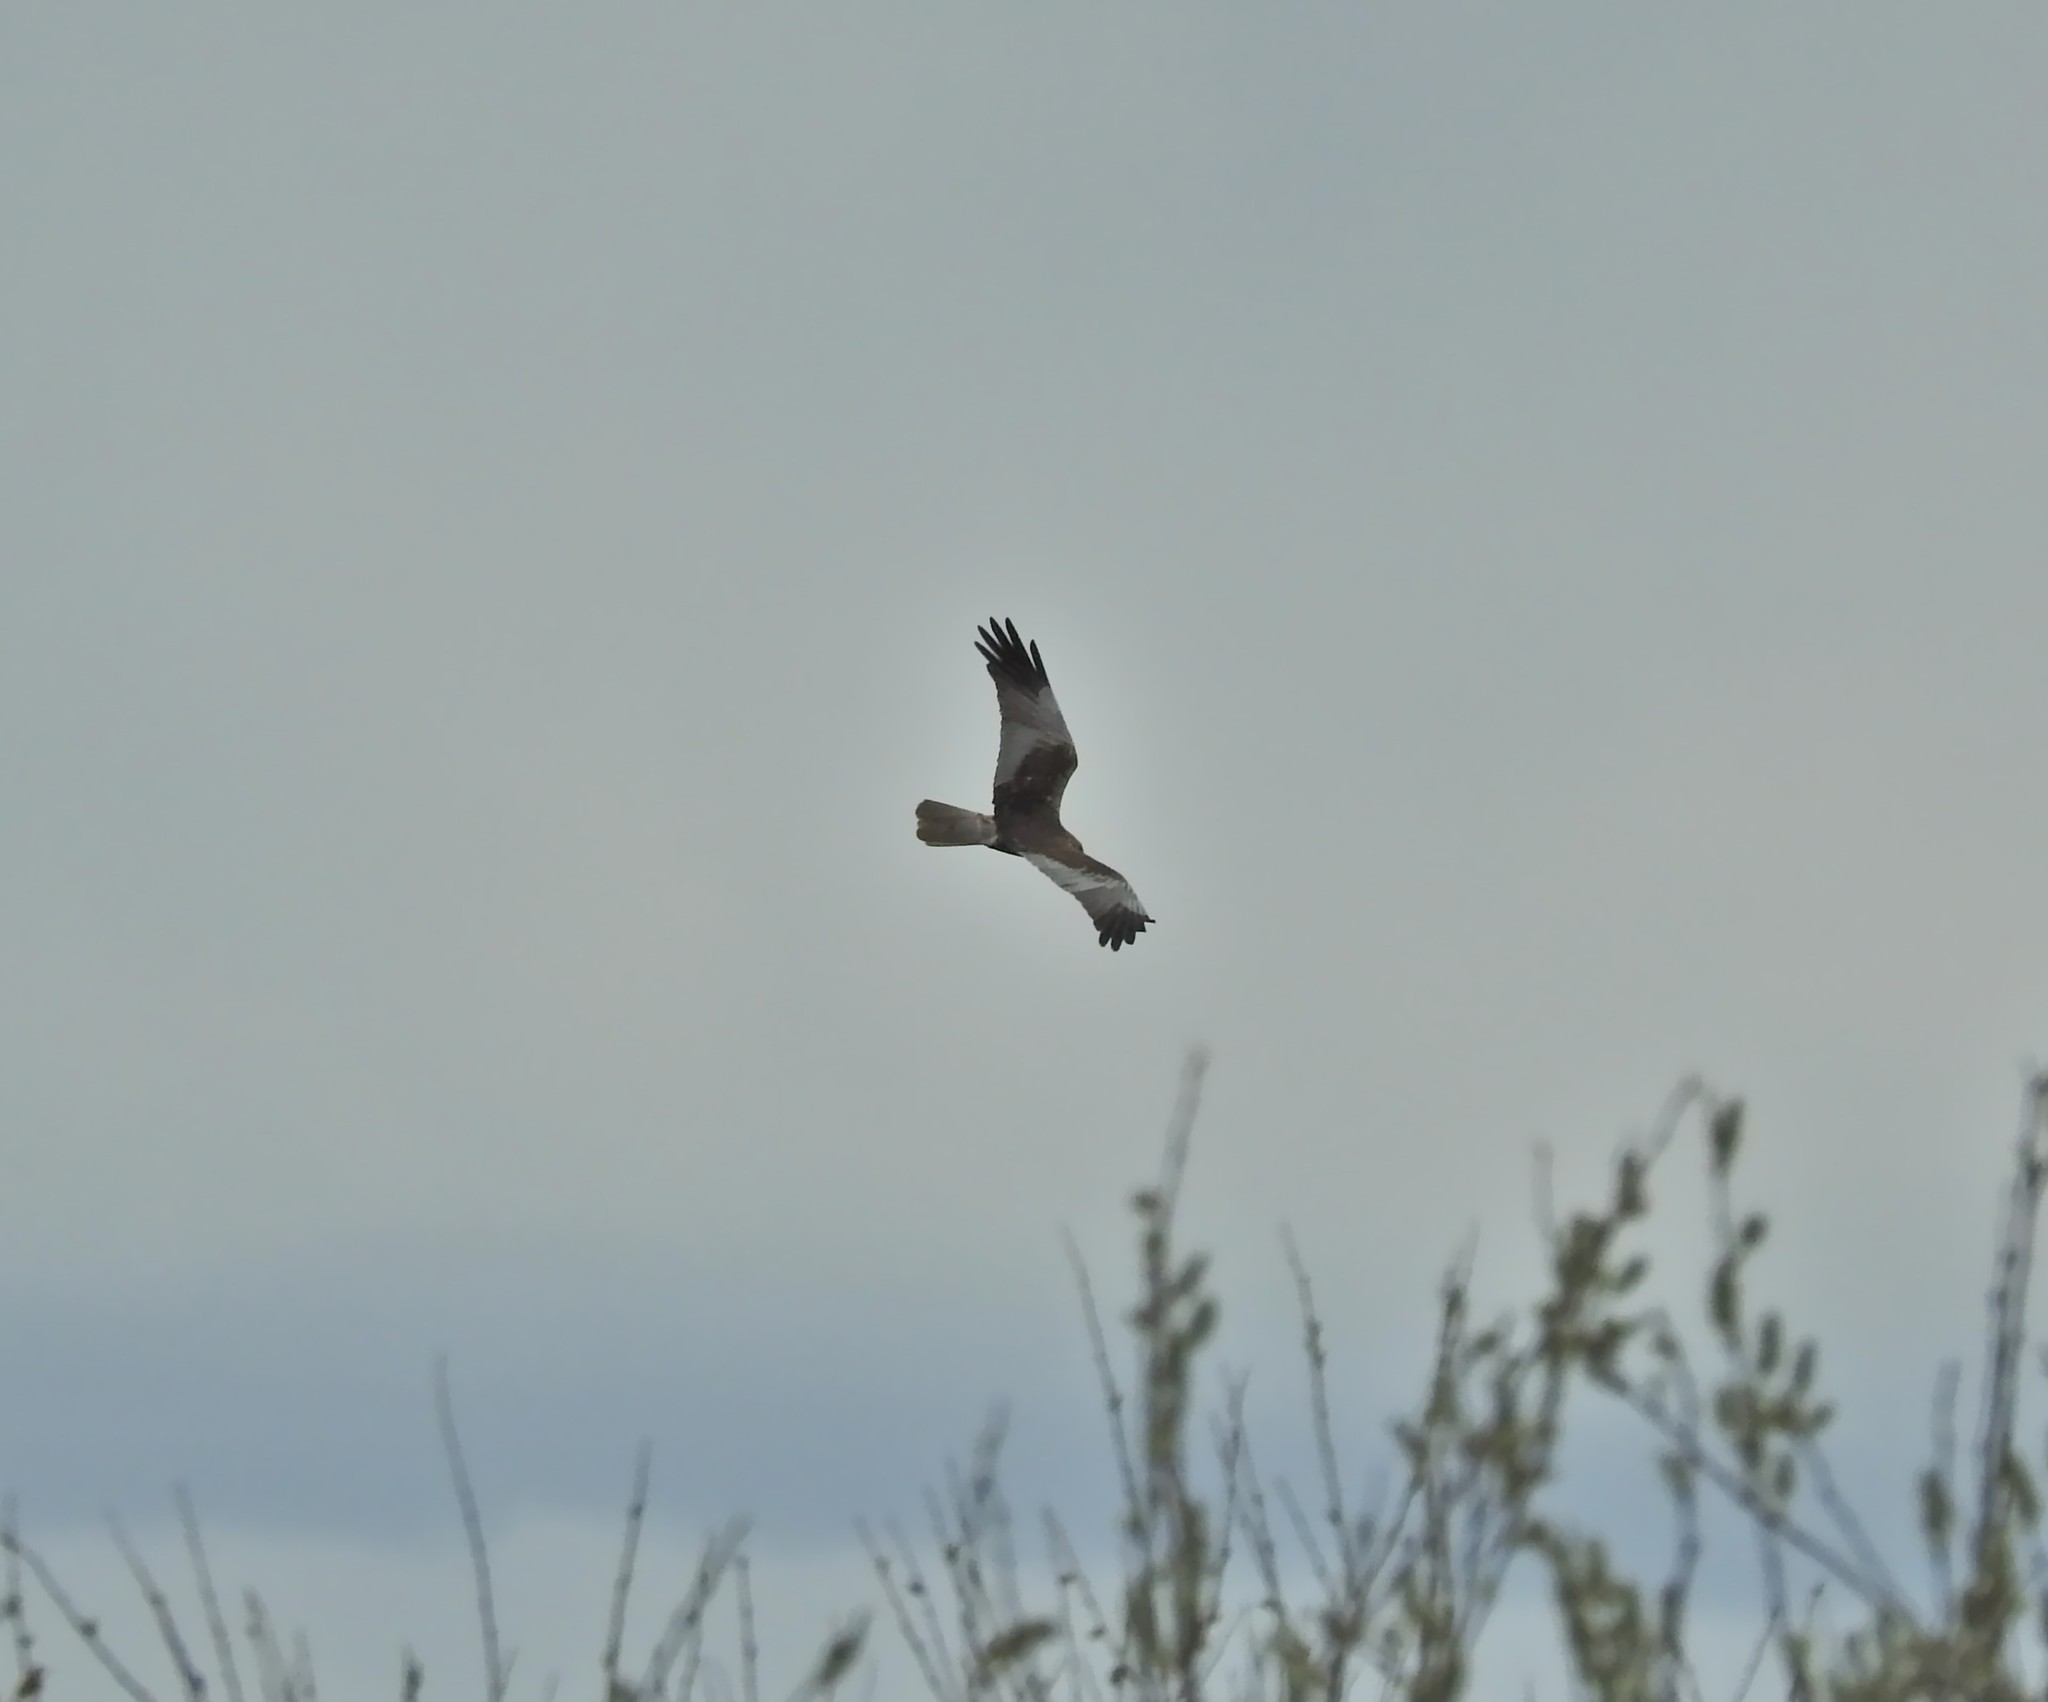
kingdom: Animalia
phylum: Chordata
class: Aves
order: Accipitriformes
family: Accipitridae
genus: Circus
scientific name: Circus aeruginosus
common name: Western marsh harrier
